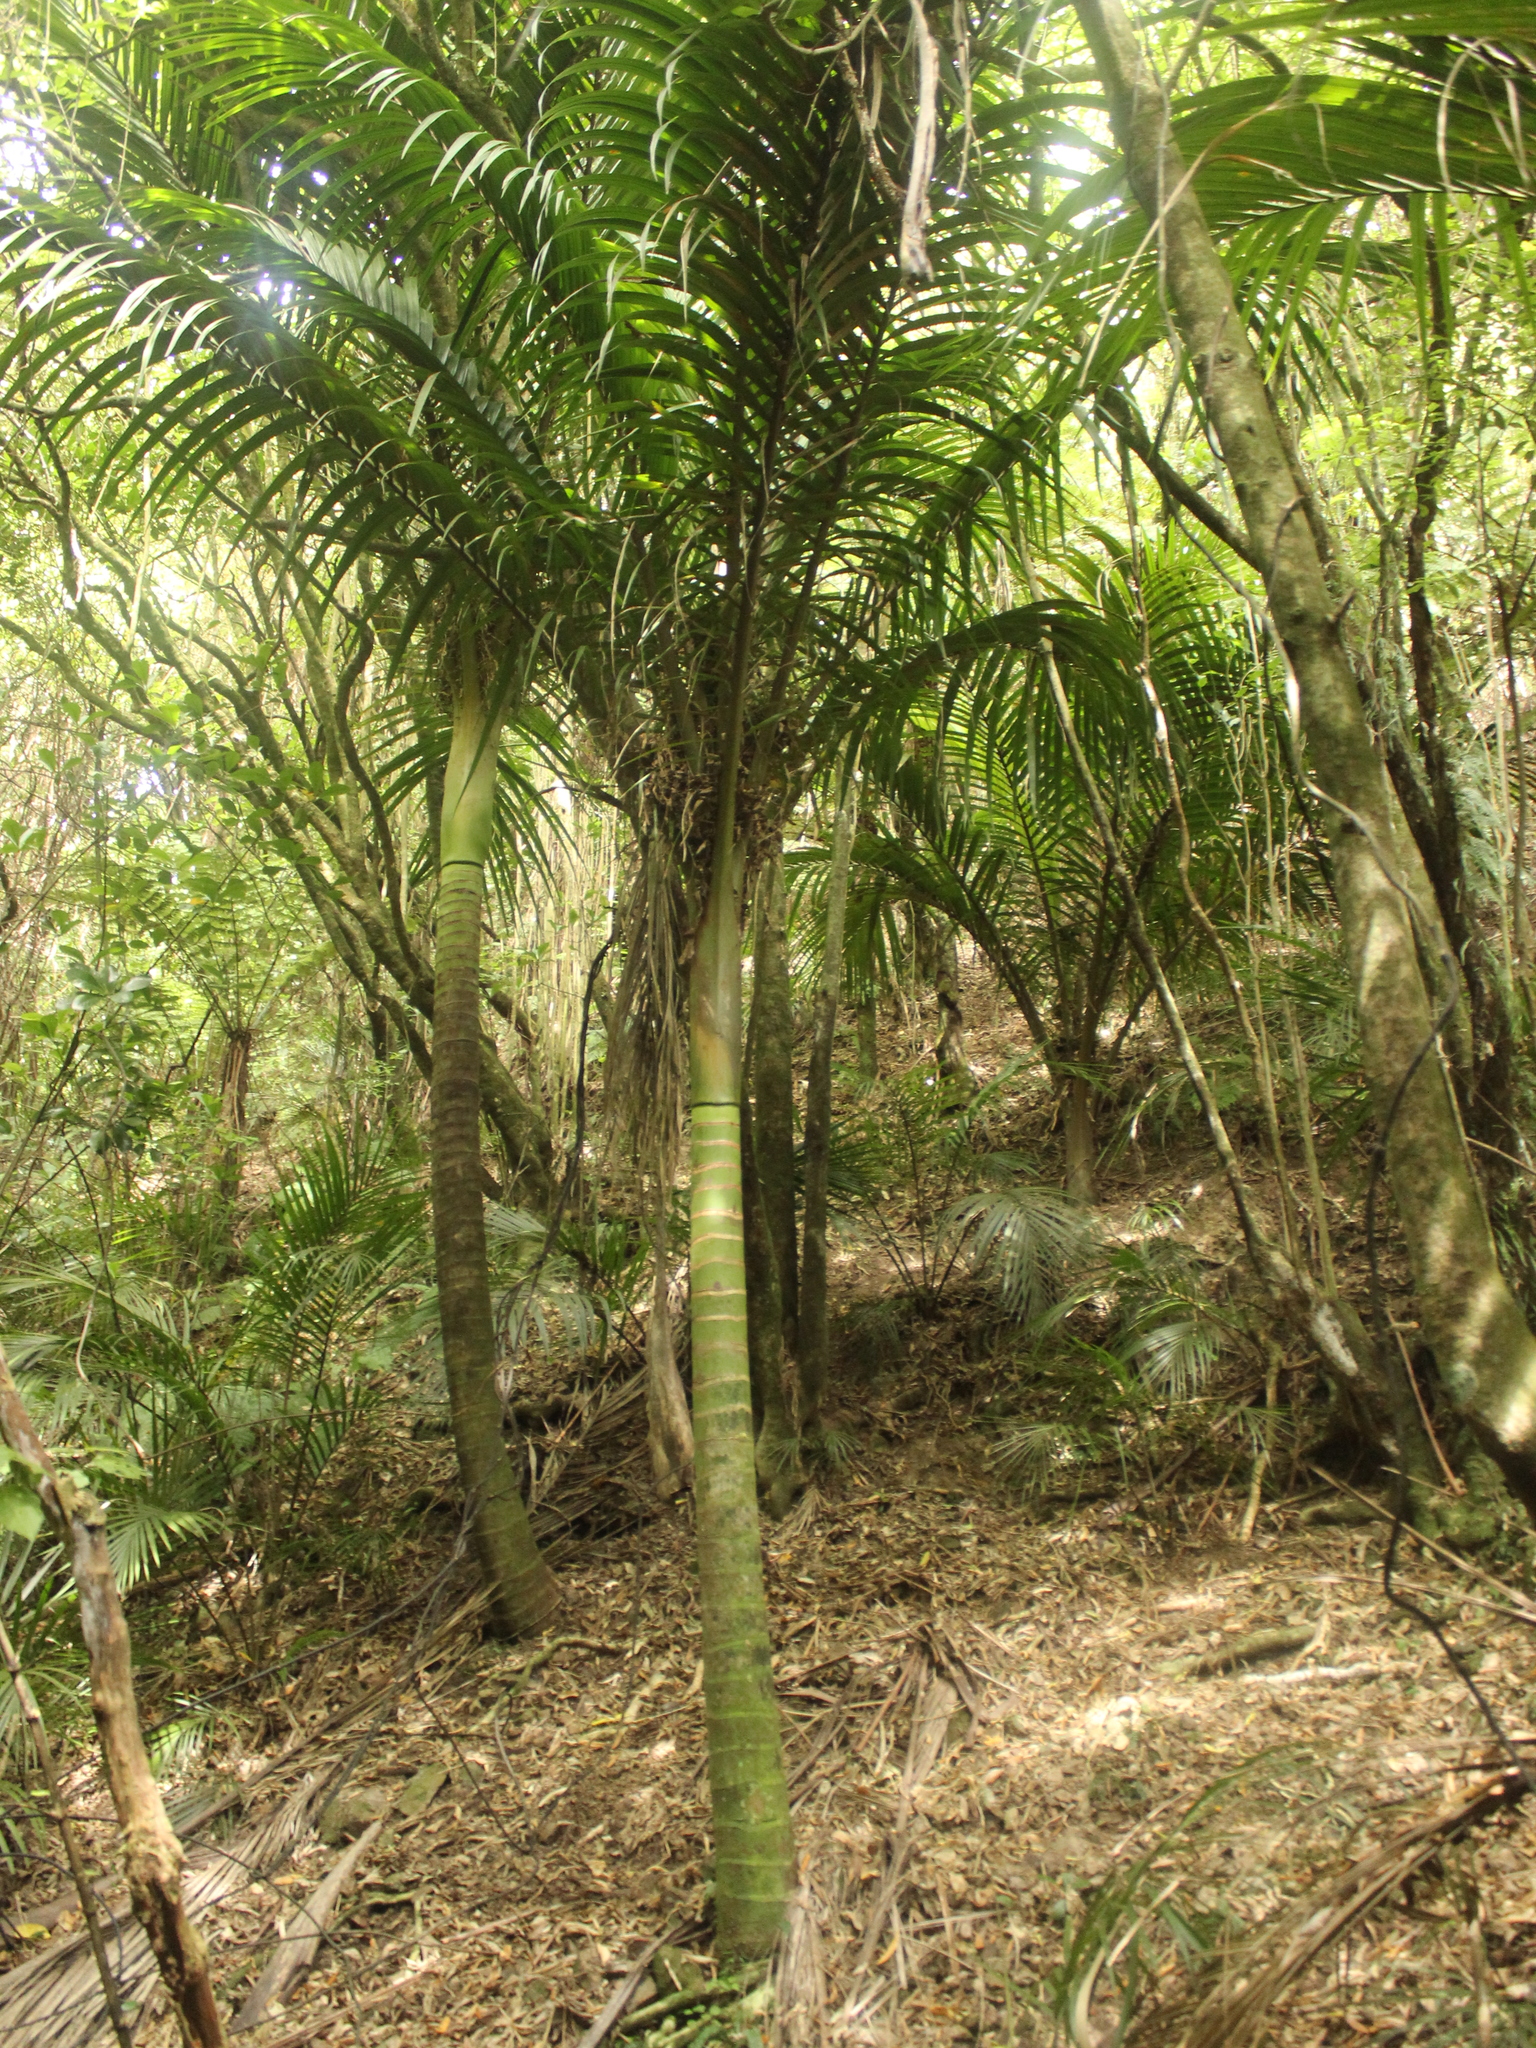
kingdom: Plantae
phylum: Tracheophyta
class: Liliopsida
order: Arecales
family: Arecaceae
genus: Rhopalostylis
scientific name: Rhopalostylis sapida
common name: Feather-duster palm
